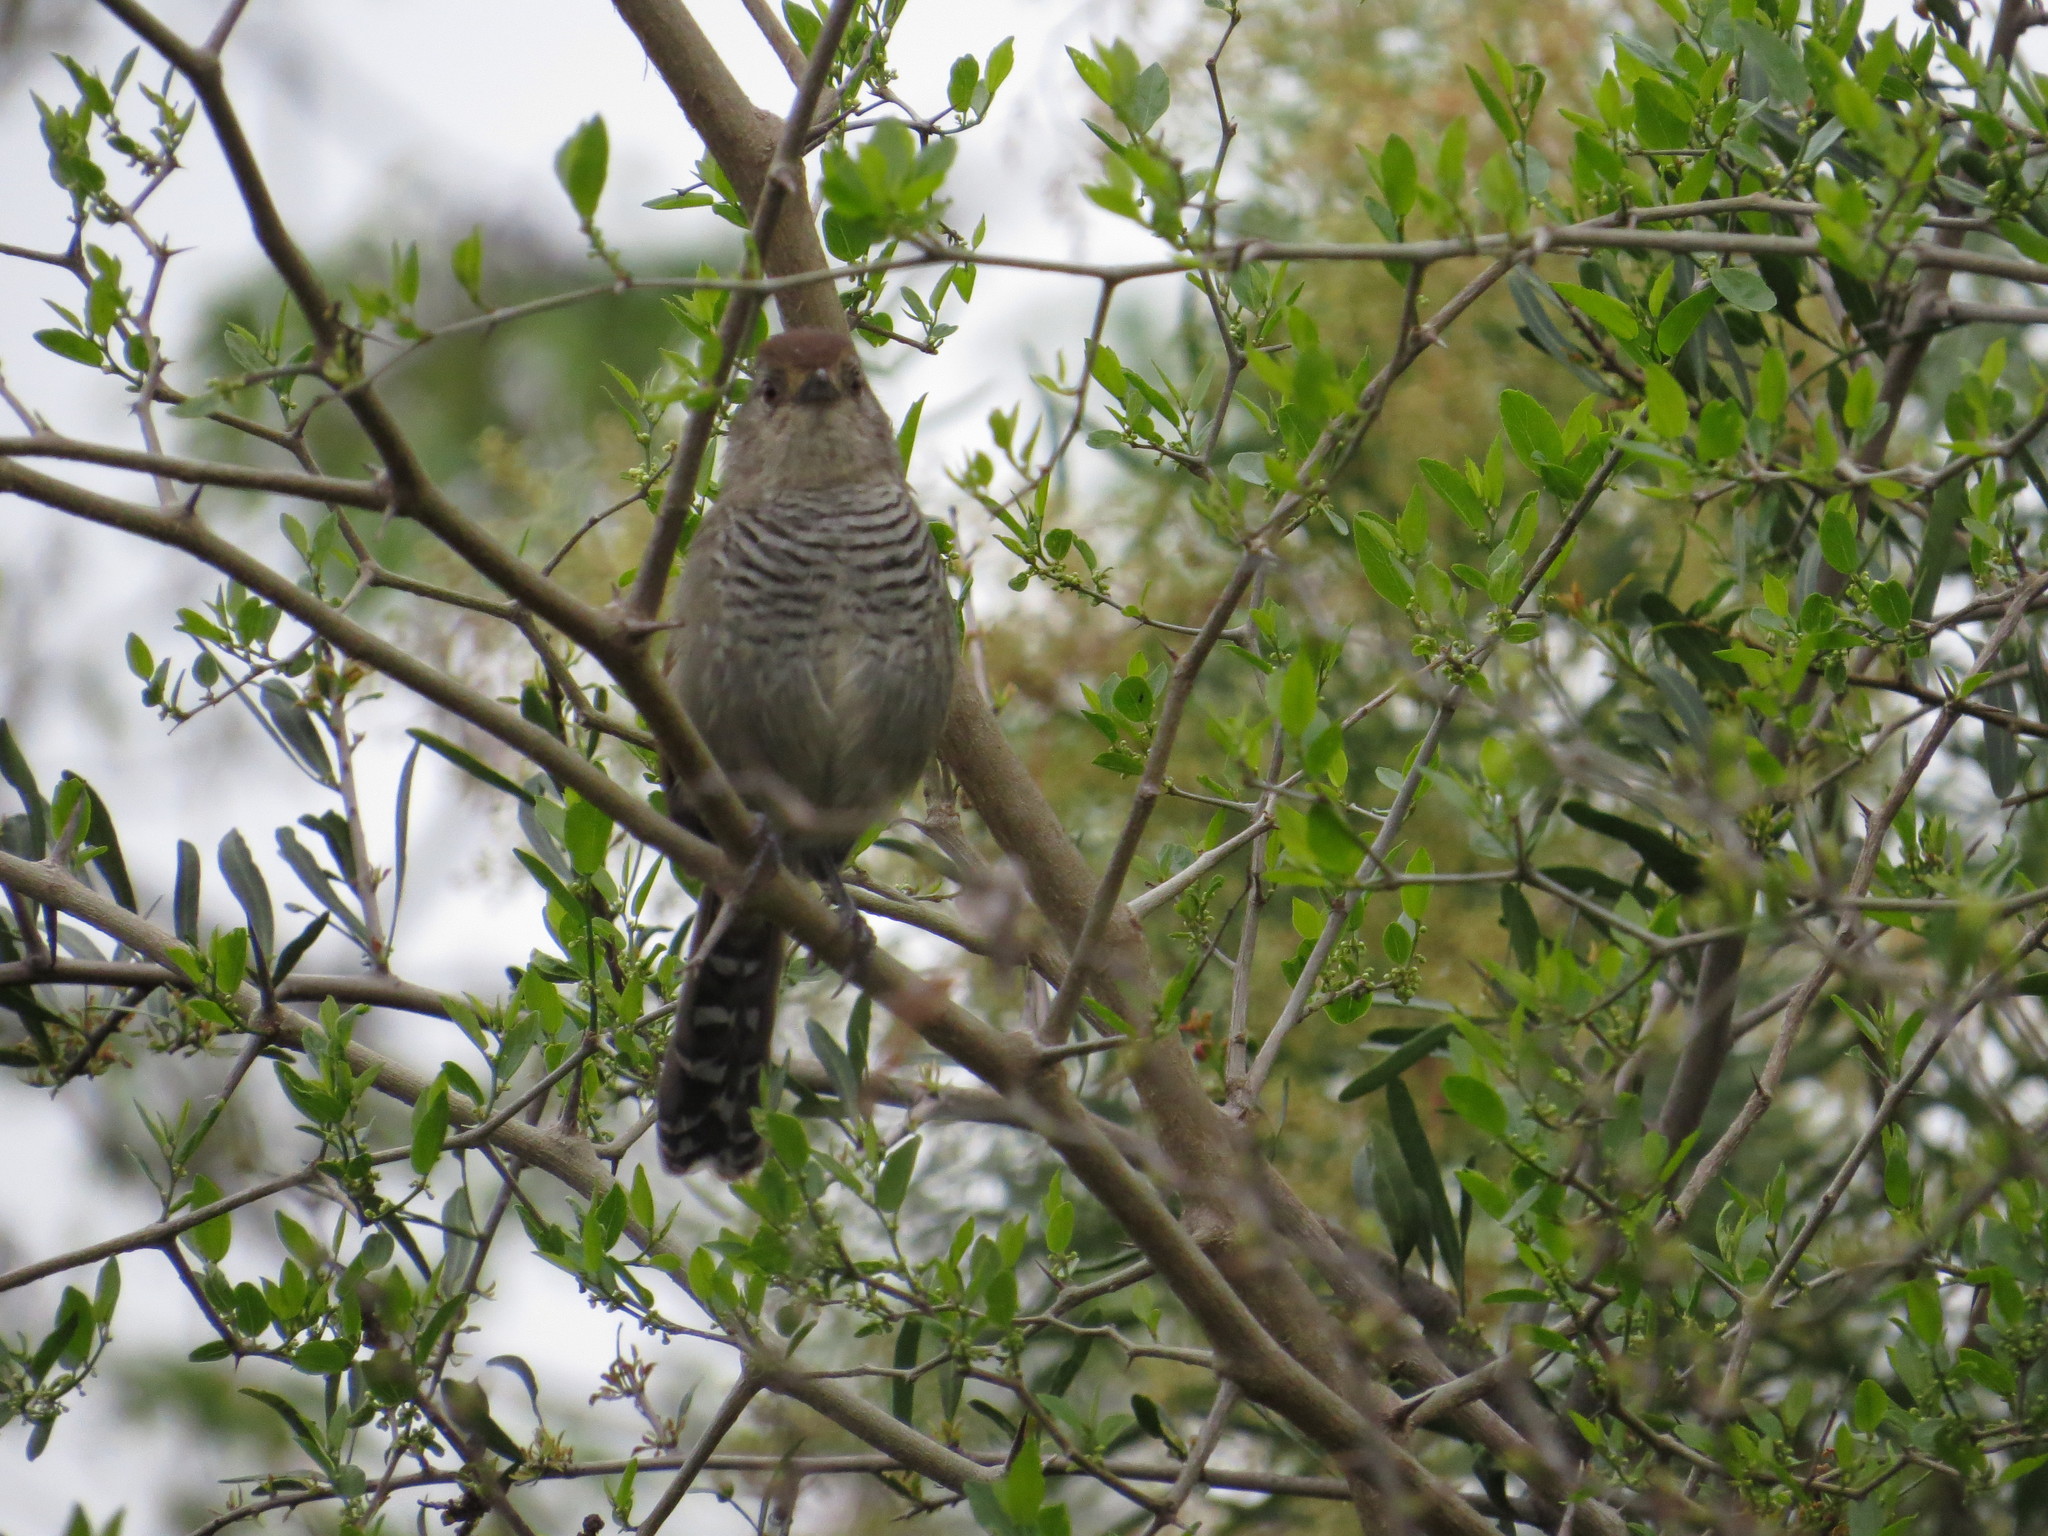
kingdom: Animalia
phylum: Chordata
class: Aves
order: Passeriformes
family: Thamnophilidae
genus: Thamnophilus
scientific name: Thamnophilus ruficapillus
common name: Rufous-capped antshrike
